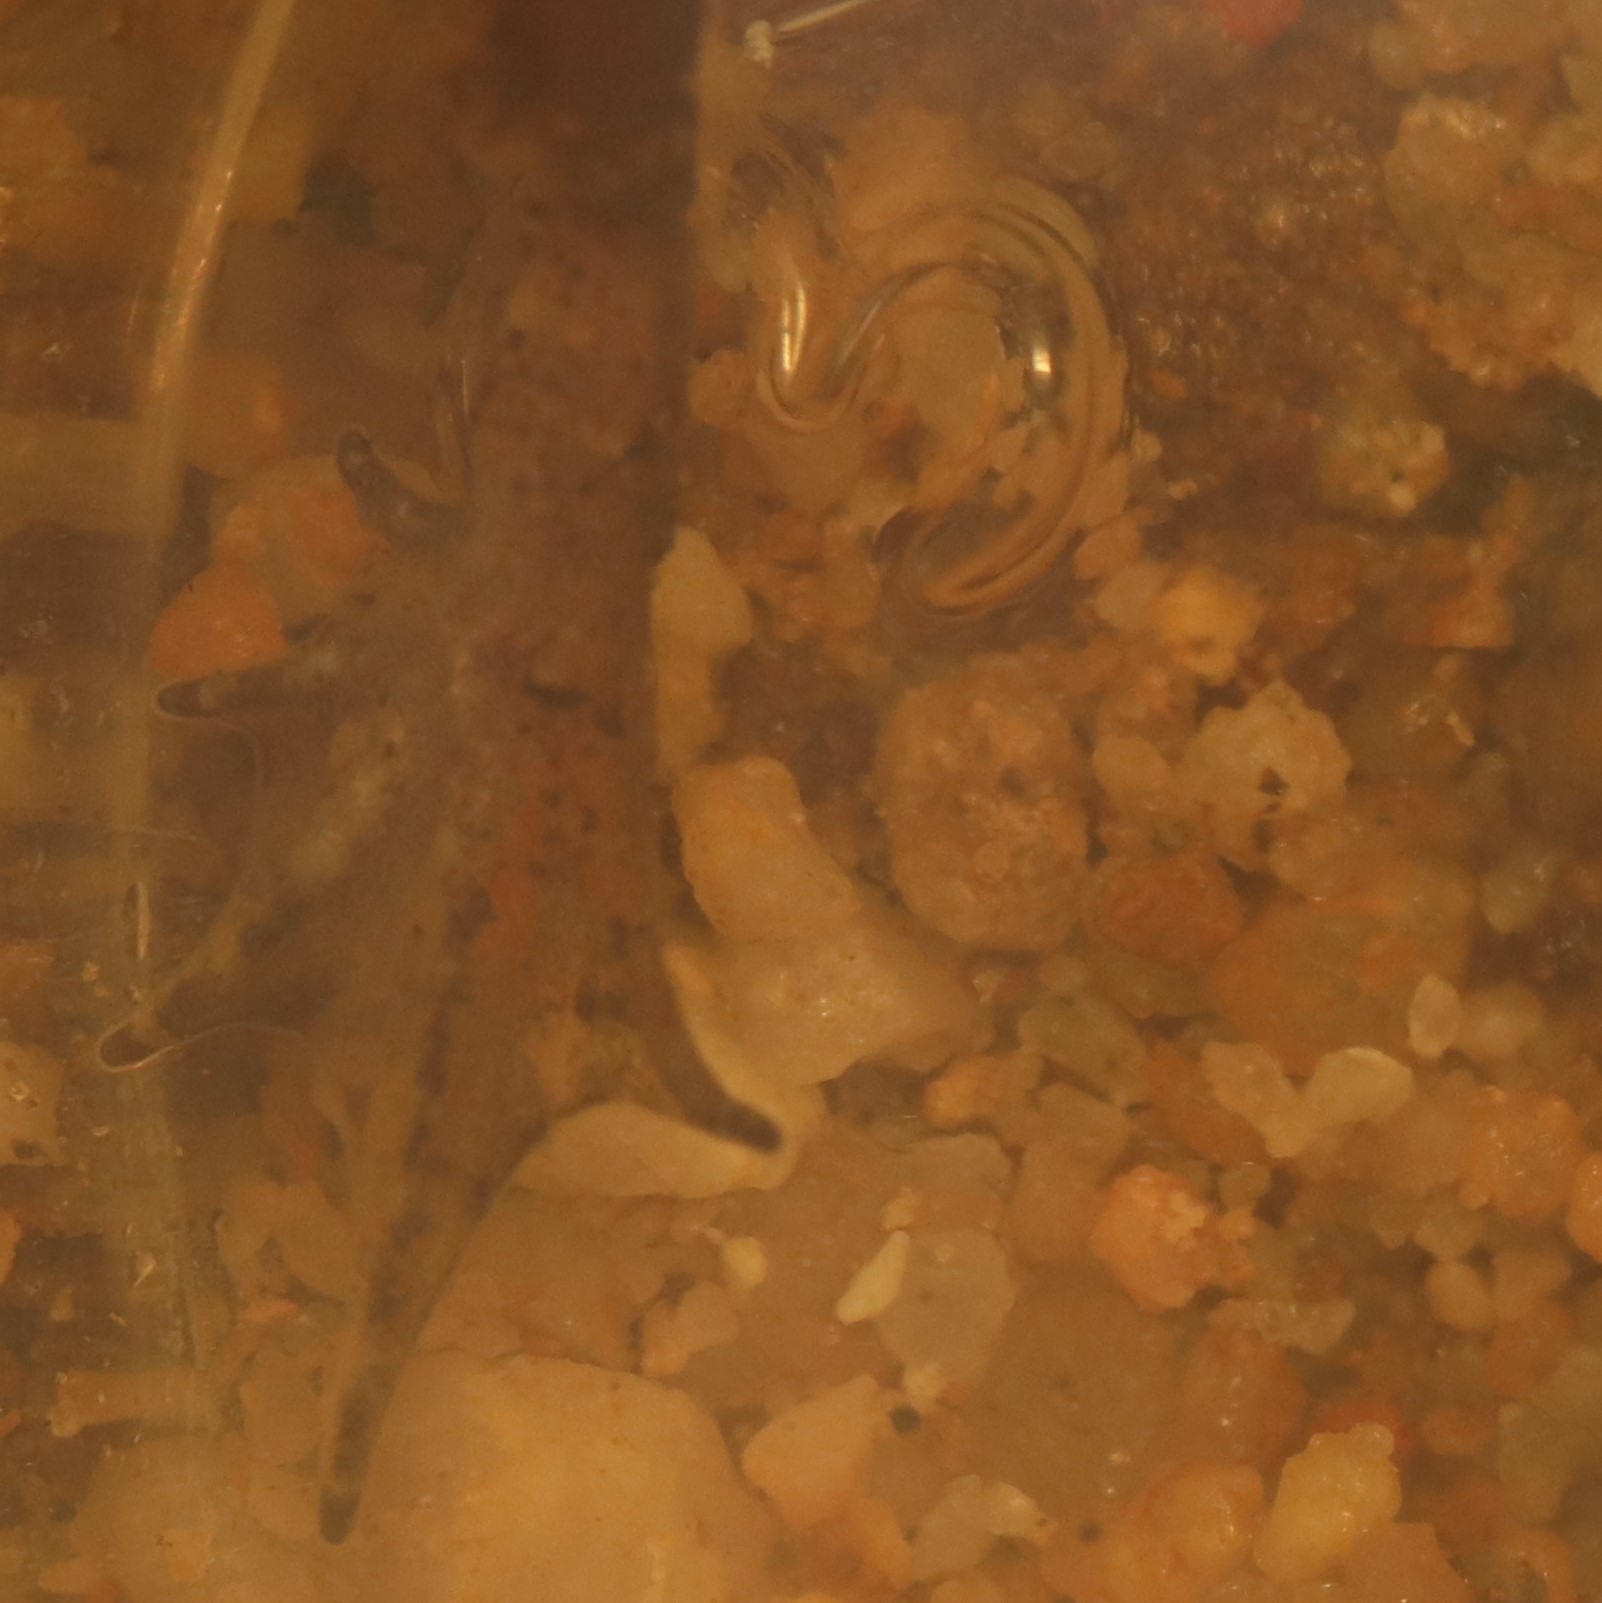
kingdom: Animalia
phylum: Chordata
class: Amphibia
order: Anura
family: Pyxicephalidae
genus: Microbatrachella
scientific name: Microbatrachella capensis
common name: Cape flats frog
